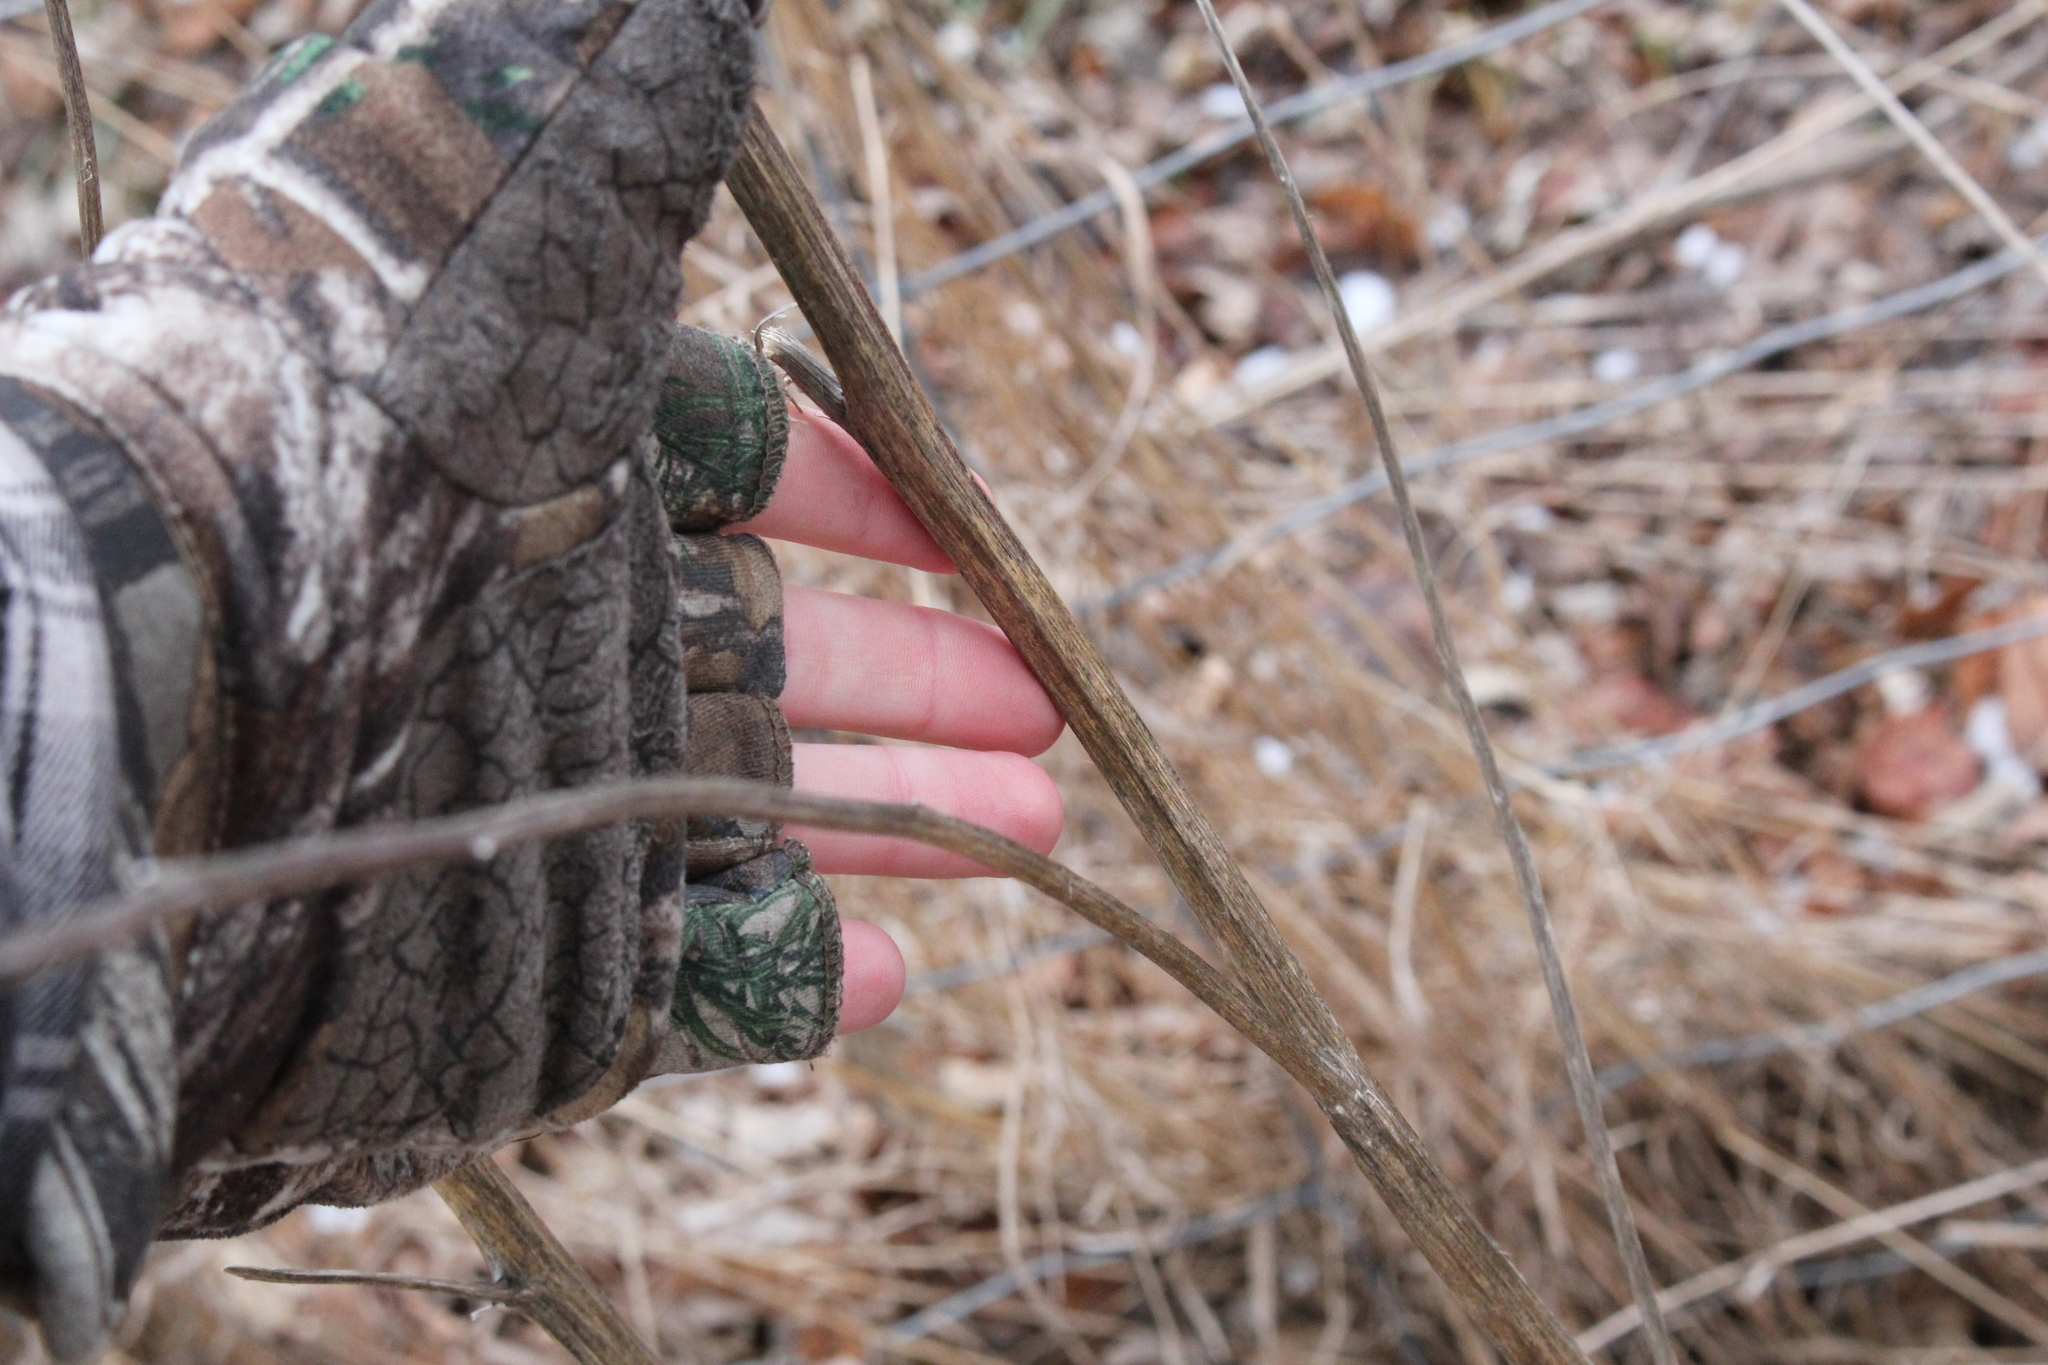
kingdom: Plantae
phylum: Tracheophyta
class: Magnoliopsida
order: Asterales
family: Asteraceae
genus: Onopordum
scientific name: Onopordum acanthium
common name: Scotch thistle
